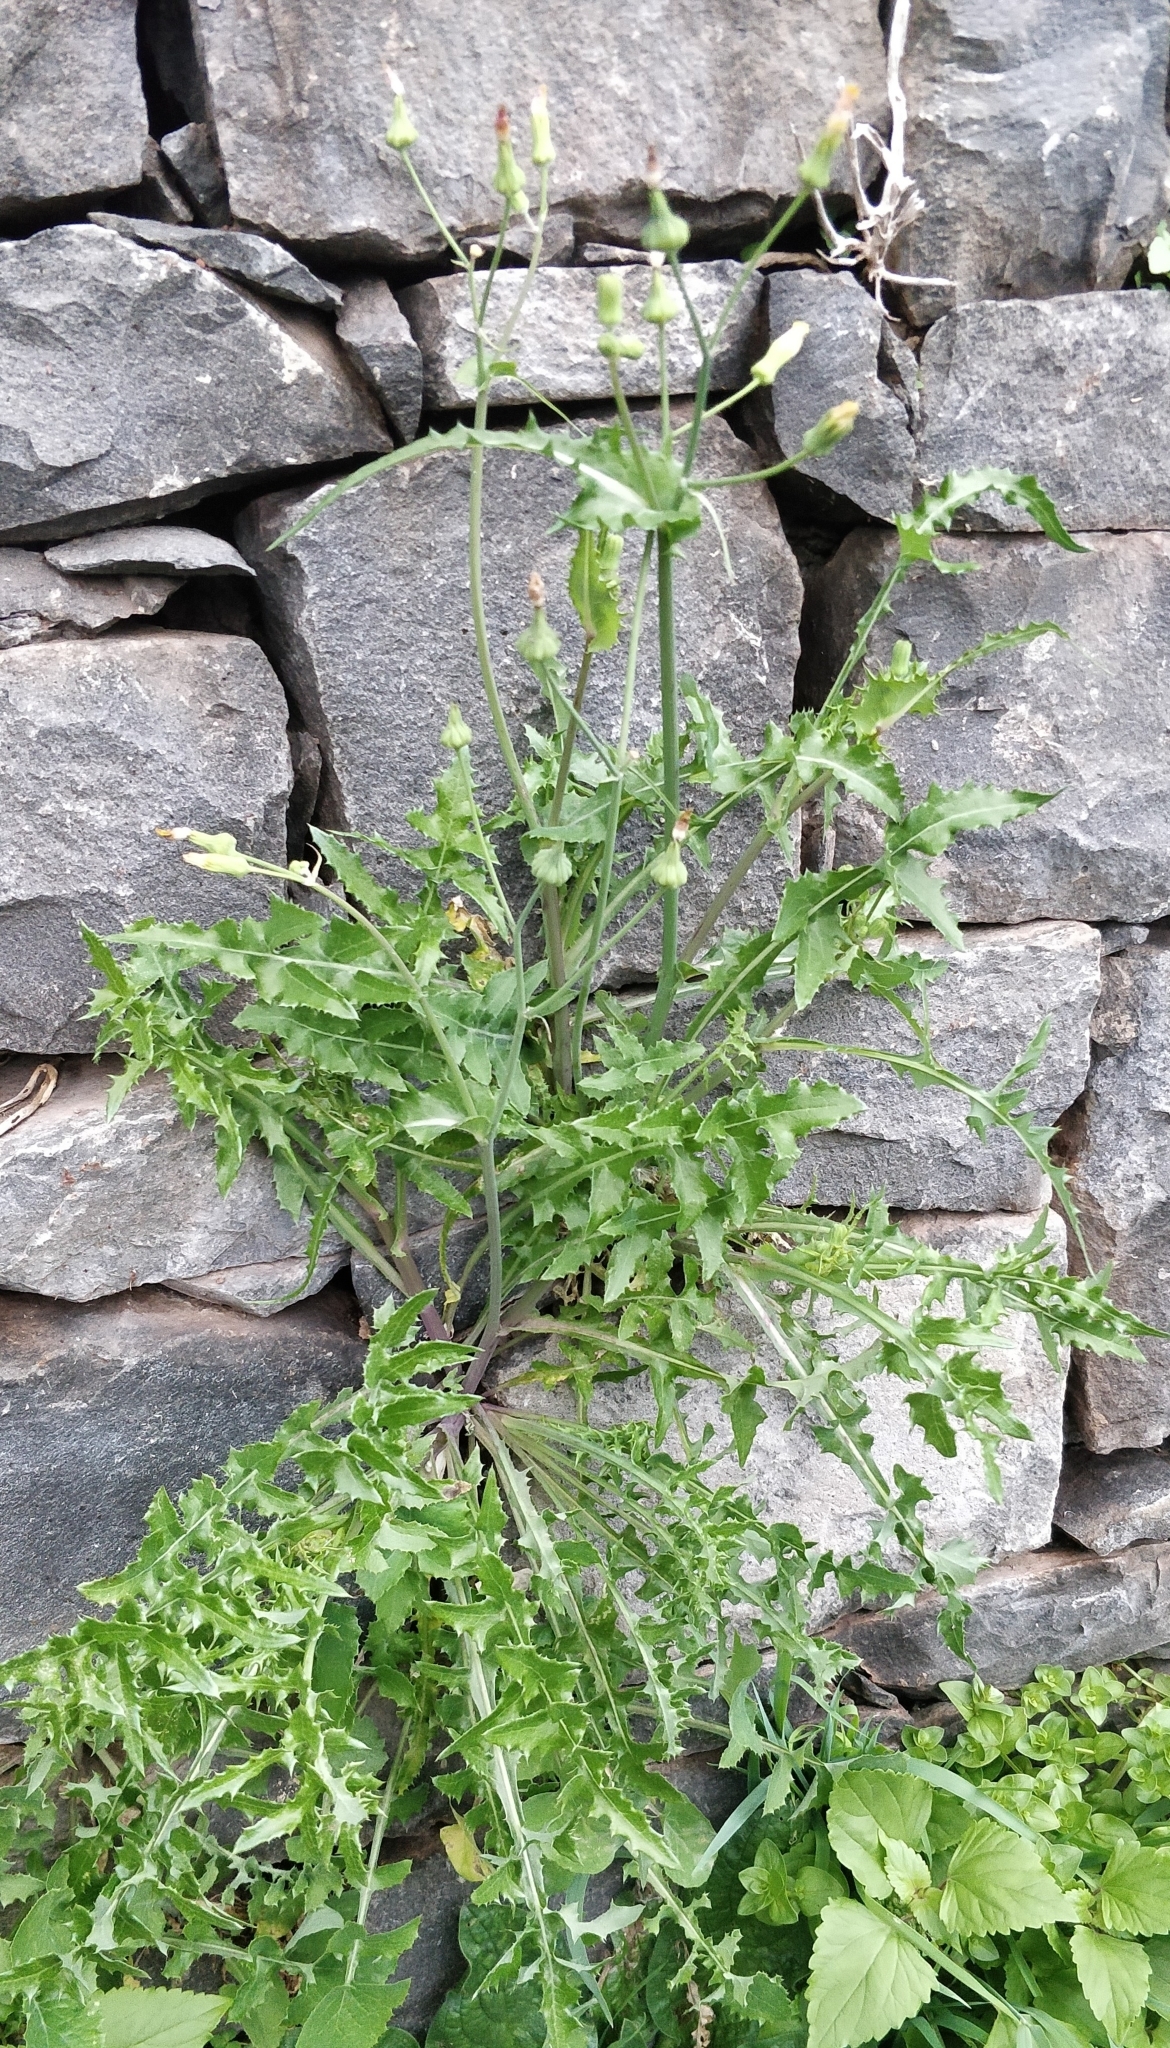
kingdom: Plantae
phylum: Tracheophyta
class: Magnoliopsida
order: Asterales
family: Asteraceae
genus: Sonchus
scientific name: Sonchus oleraceus
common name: Common sowthistle
